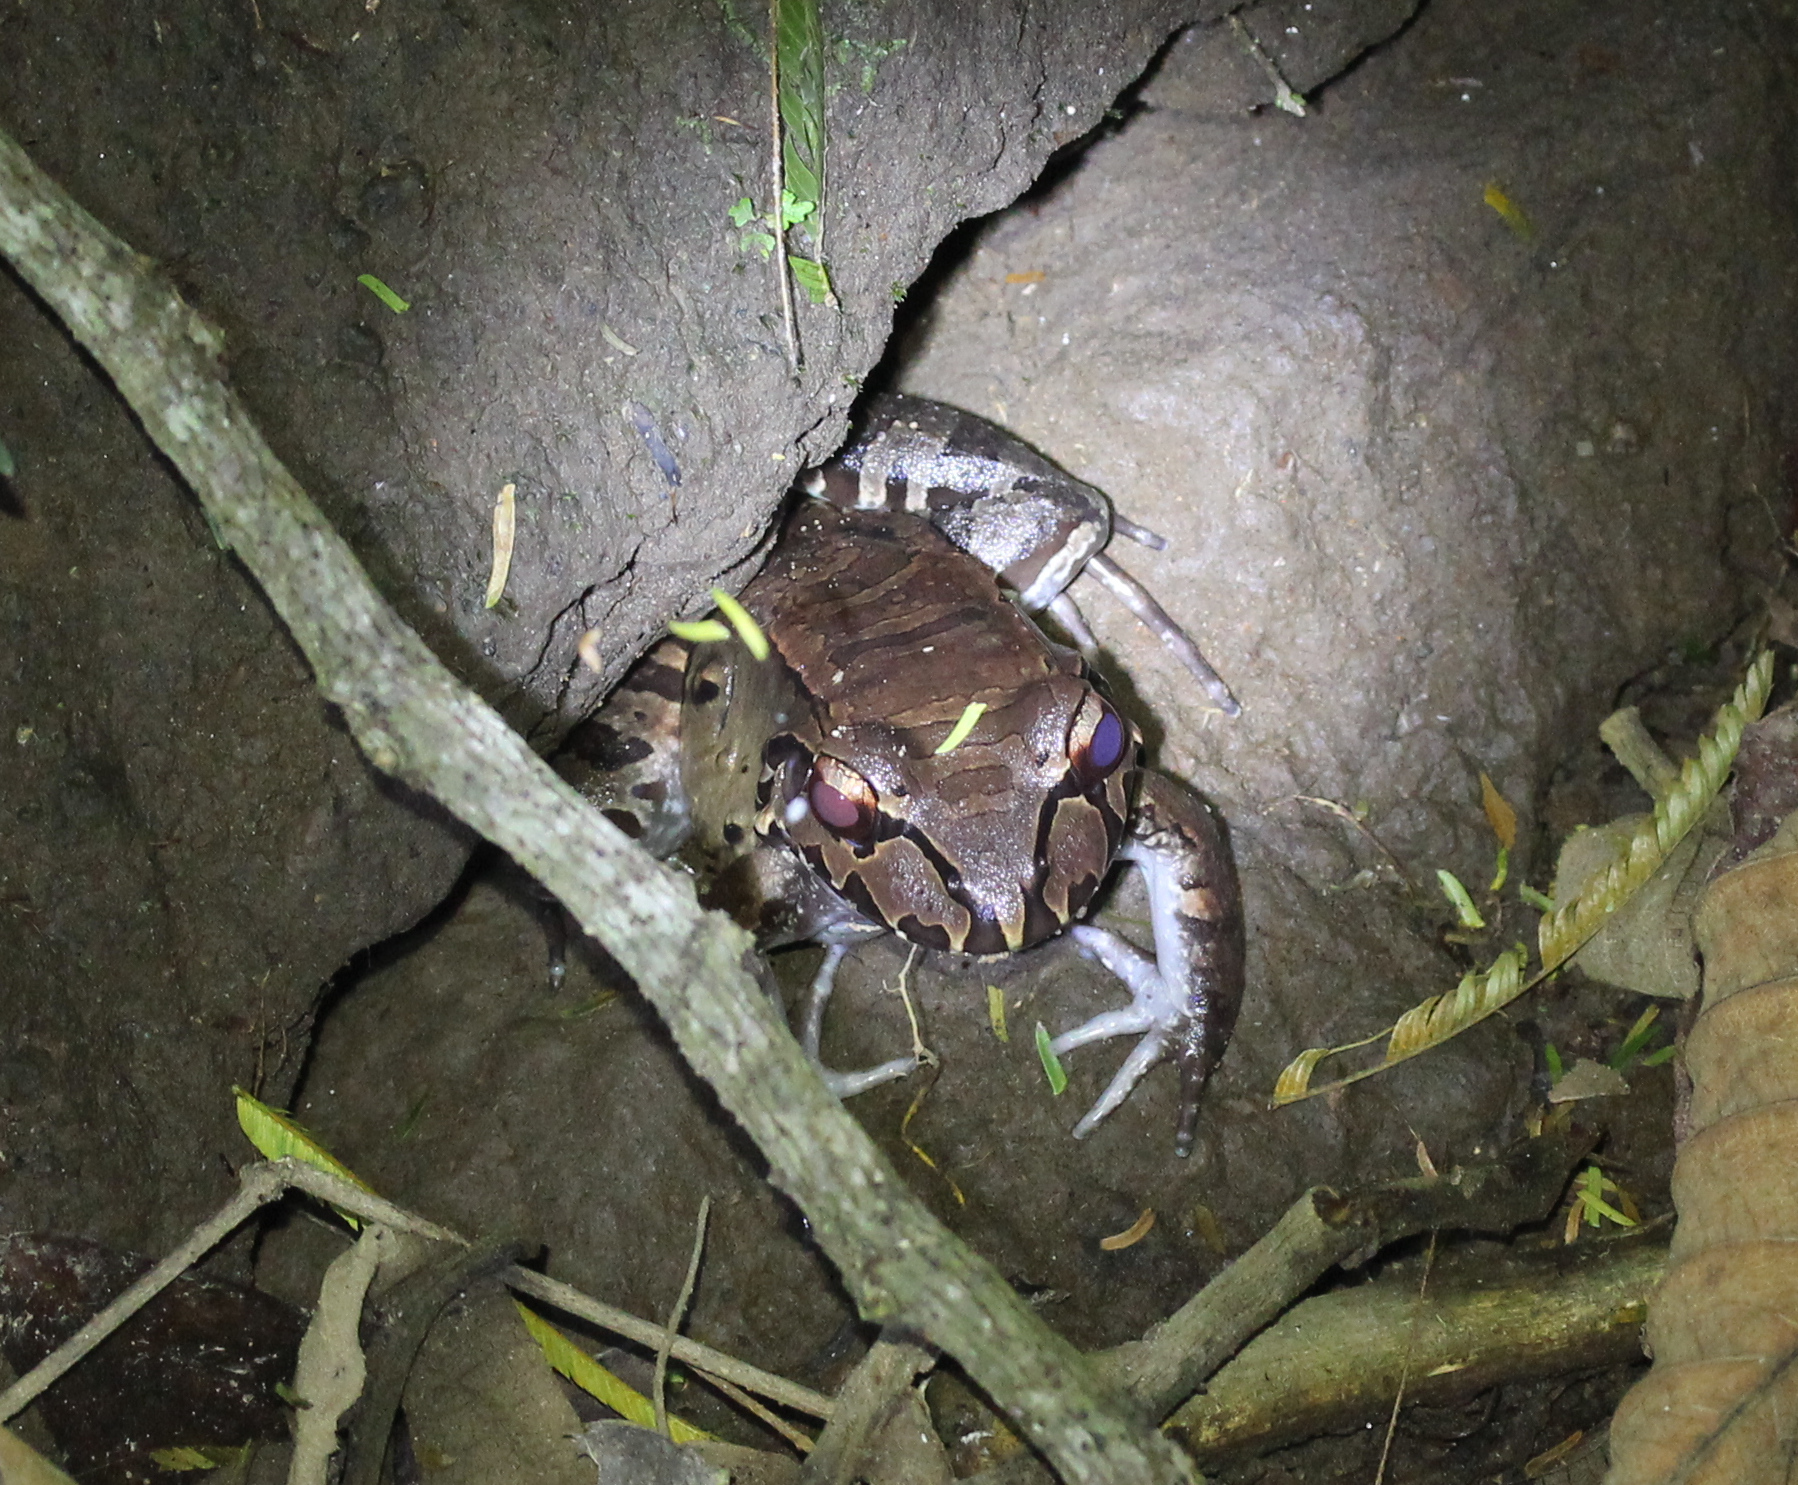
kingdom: Animalia
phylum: Chordata
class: Amphibia
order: Anura
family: Leptodactylidae
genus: Leptodactylus
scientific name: Leptodactylus savagei
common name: Savage's thin-toed frog
